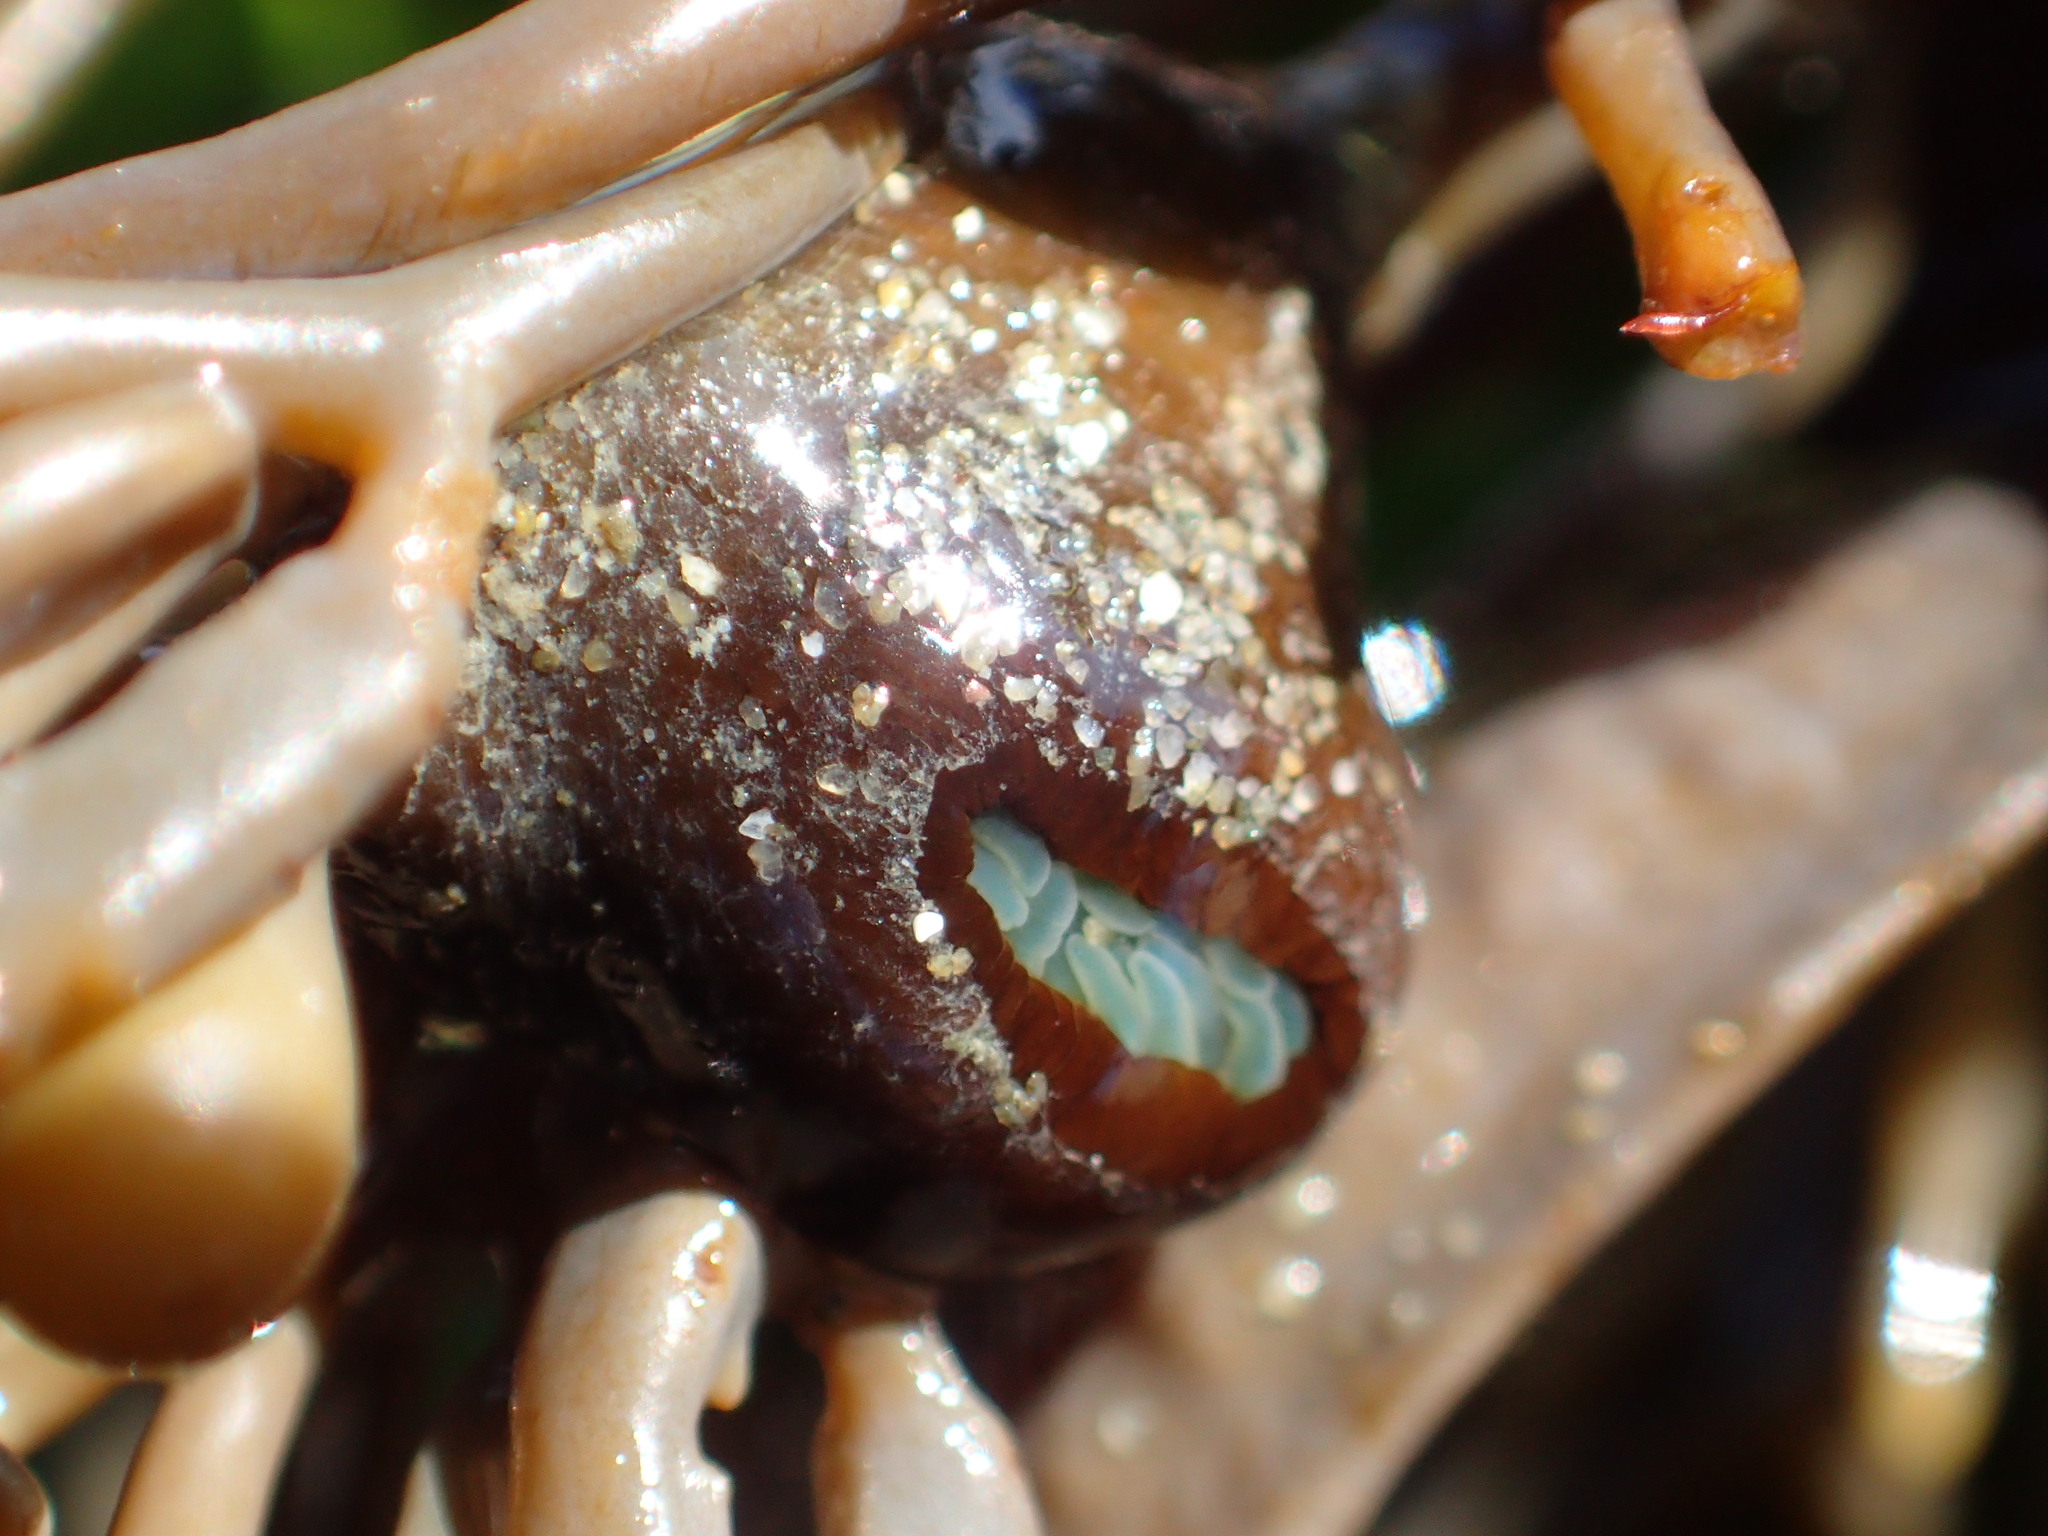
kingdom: Animalia
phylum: Cnidaria
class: Anthozoa
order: Actiniaria
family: Hormathiidae
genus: Handactis
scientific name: Handactis nutrix
